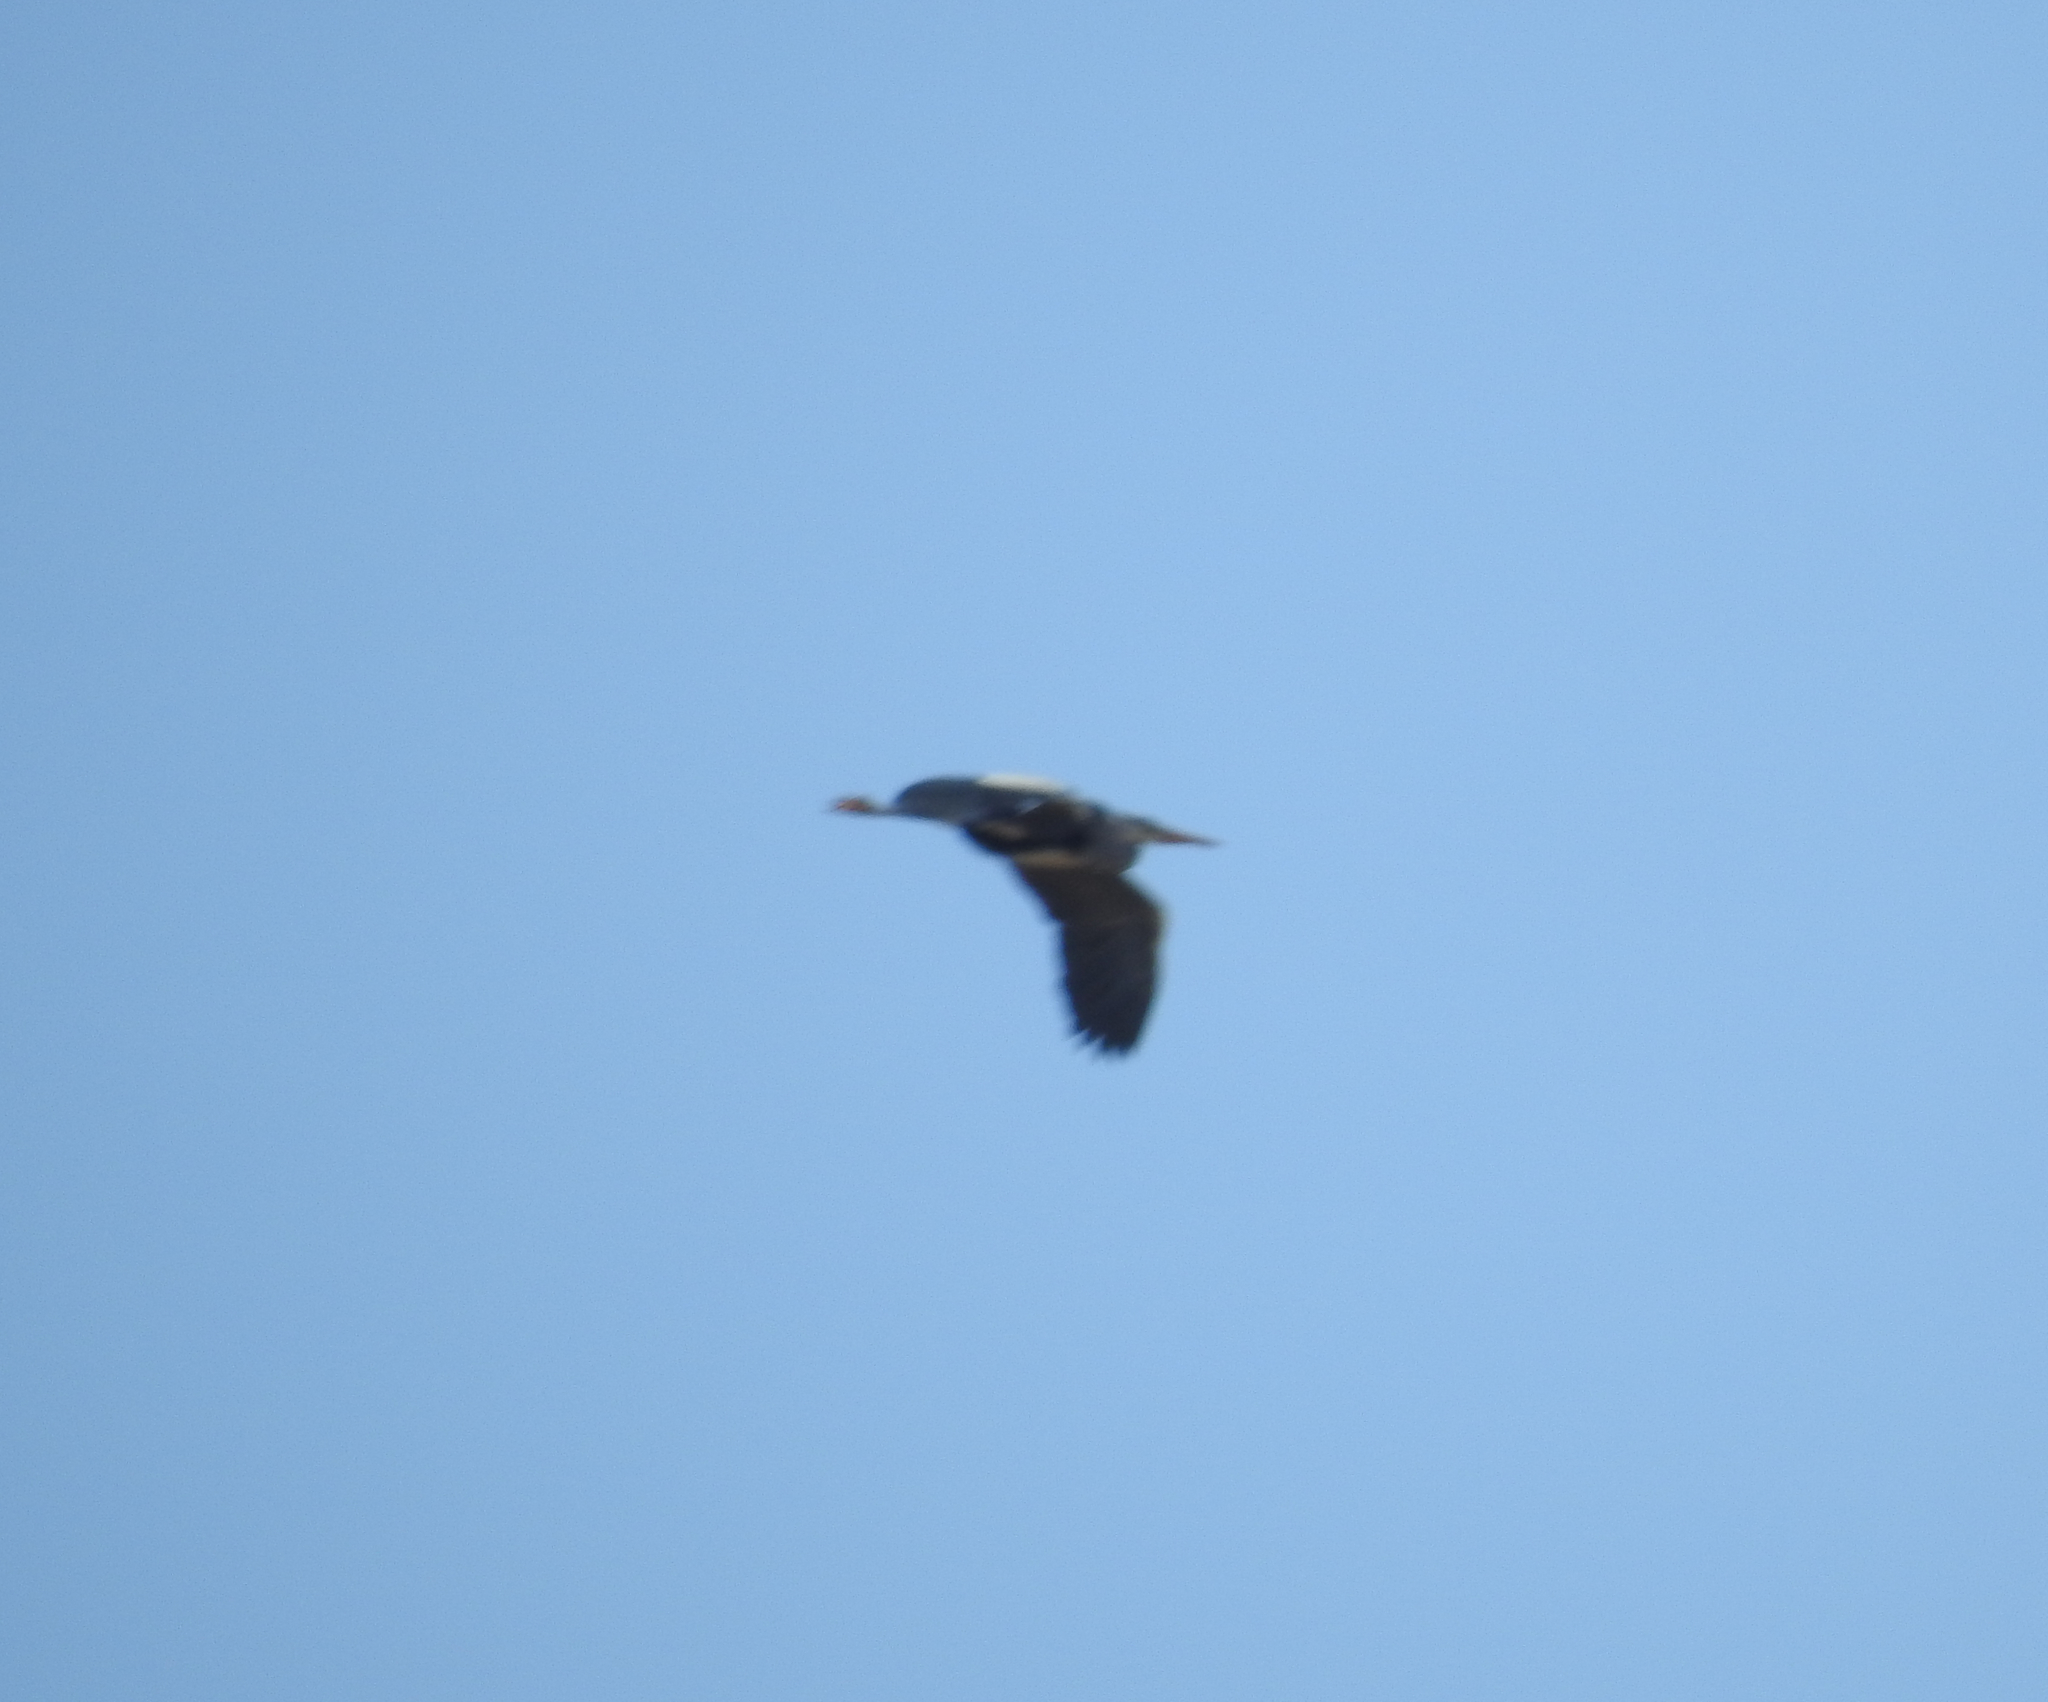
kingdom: Animalia
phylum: Chordata
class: Aves
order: Pelecaniformes
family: Ardeidae
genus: Ardea
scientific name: Ardea cinerea
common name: Grey heron
